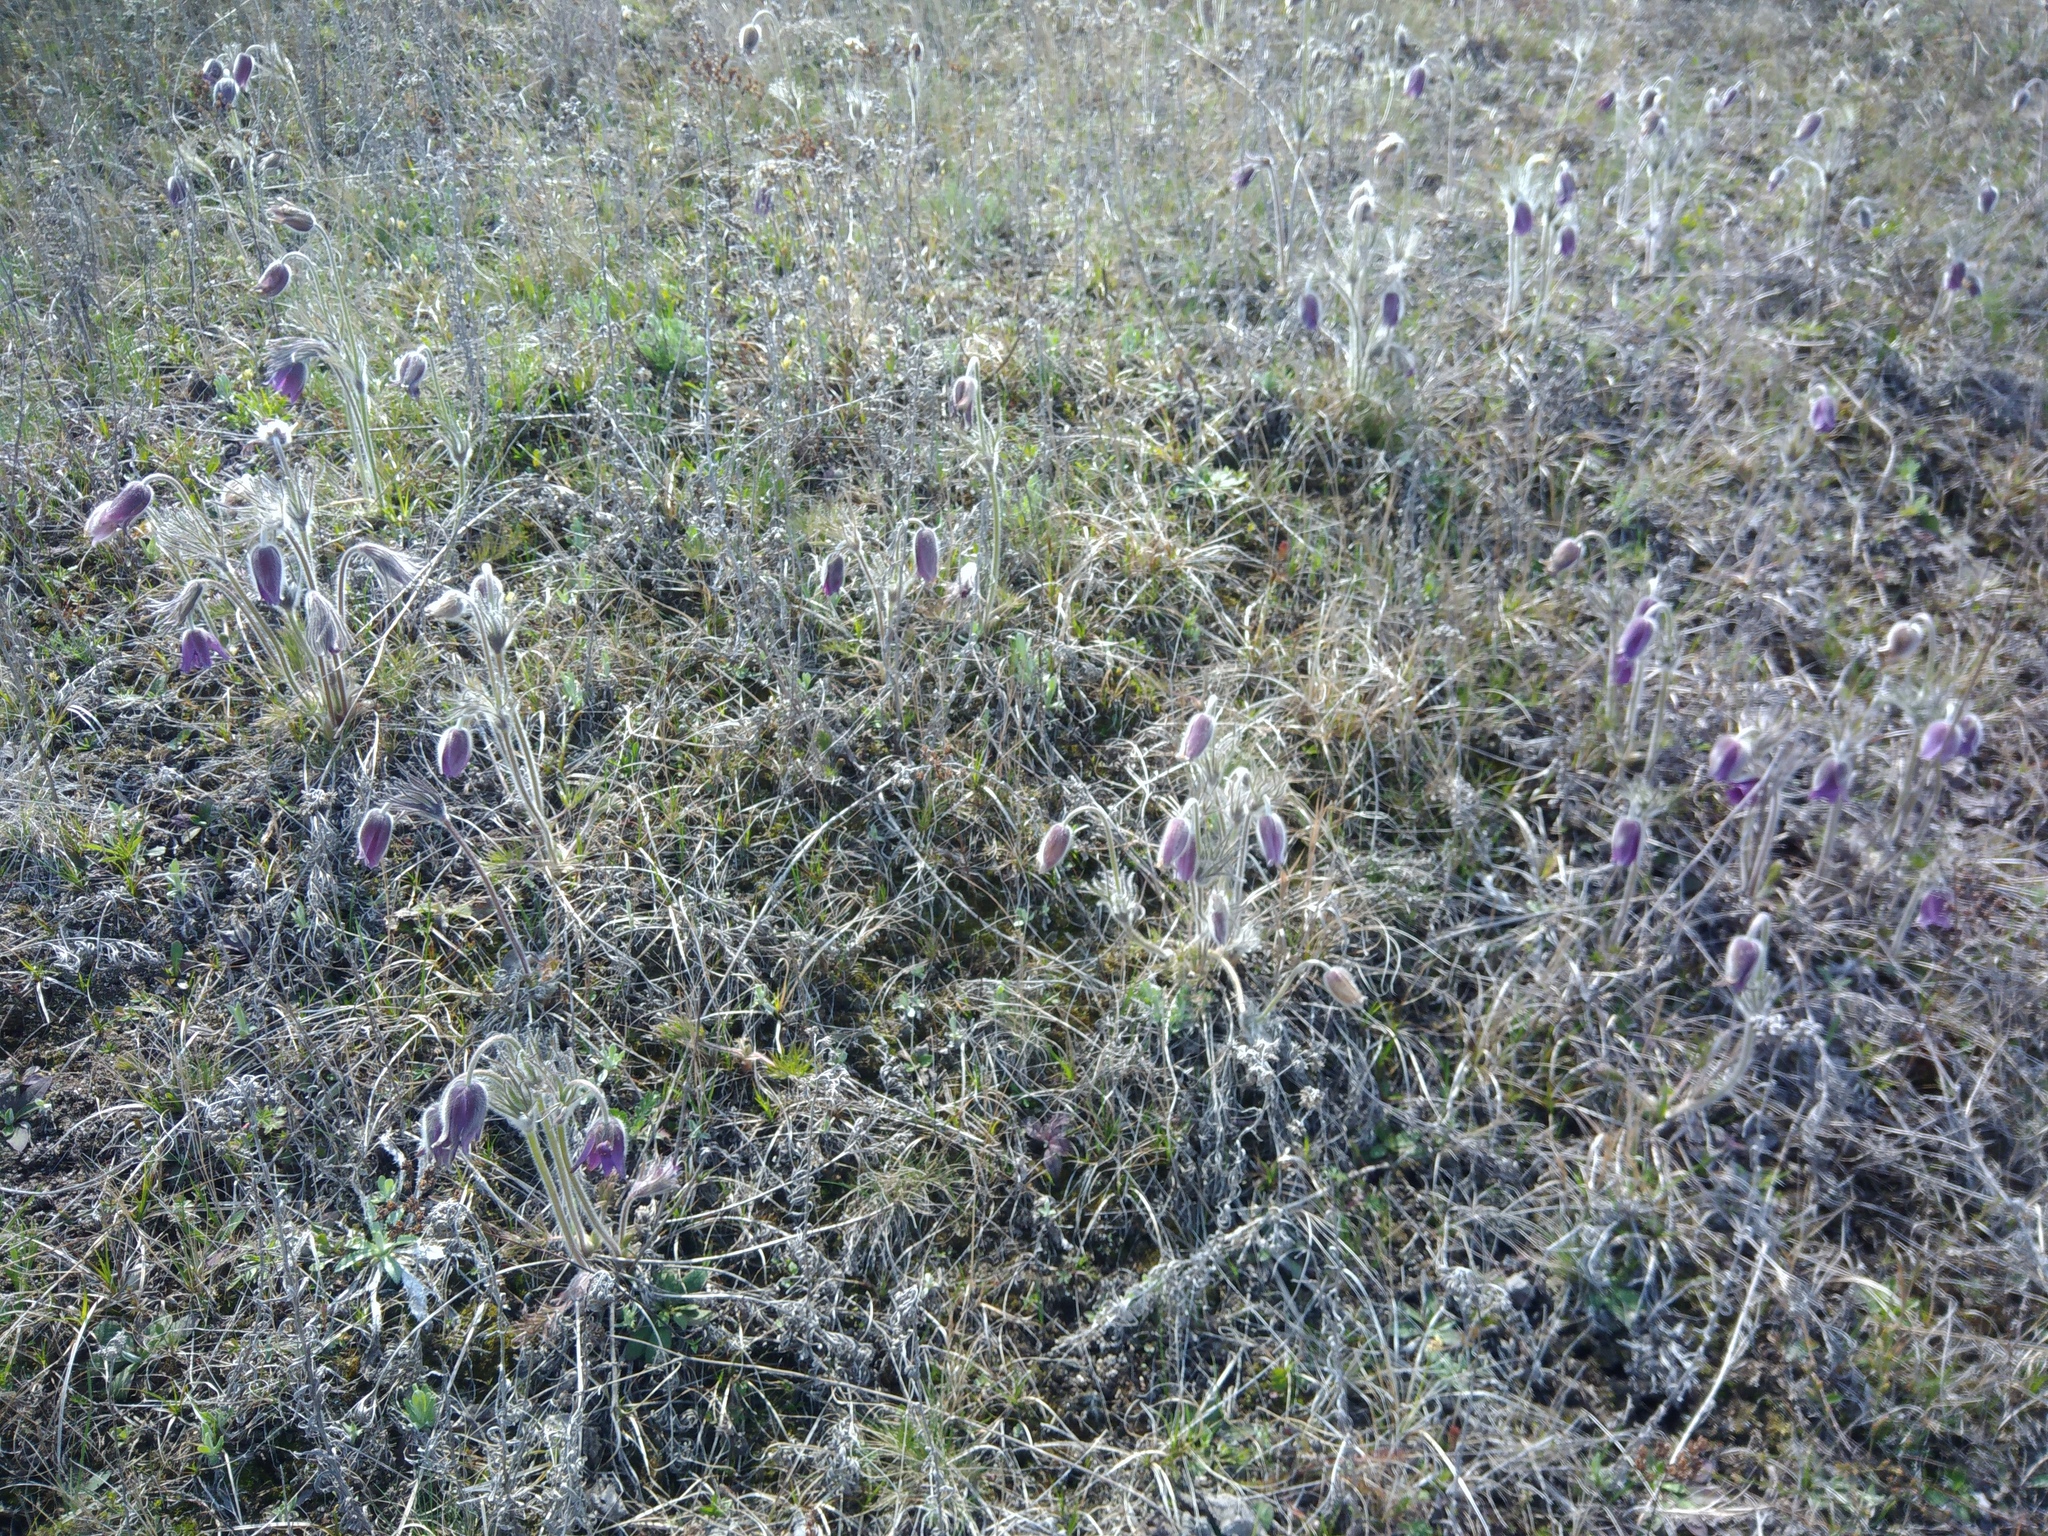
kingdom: Plantae
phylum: Tracheophyta
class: Magnoliopsida
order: Ranunculales
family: Ranunculaceae
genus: Pulsatilla
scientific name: Pulsatilla pratensis
